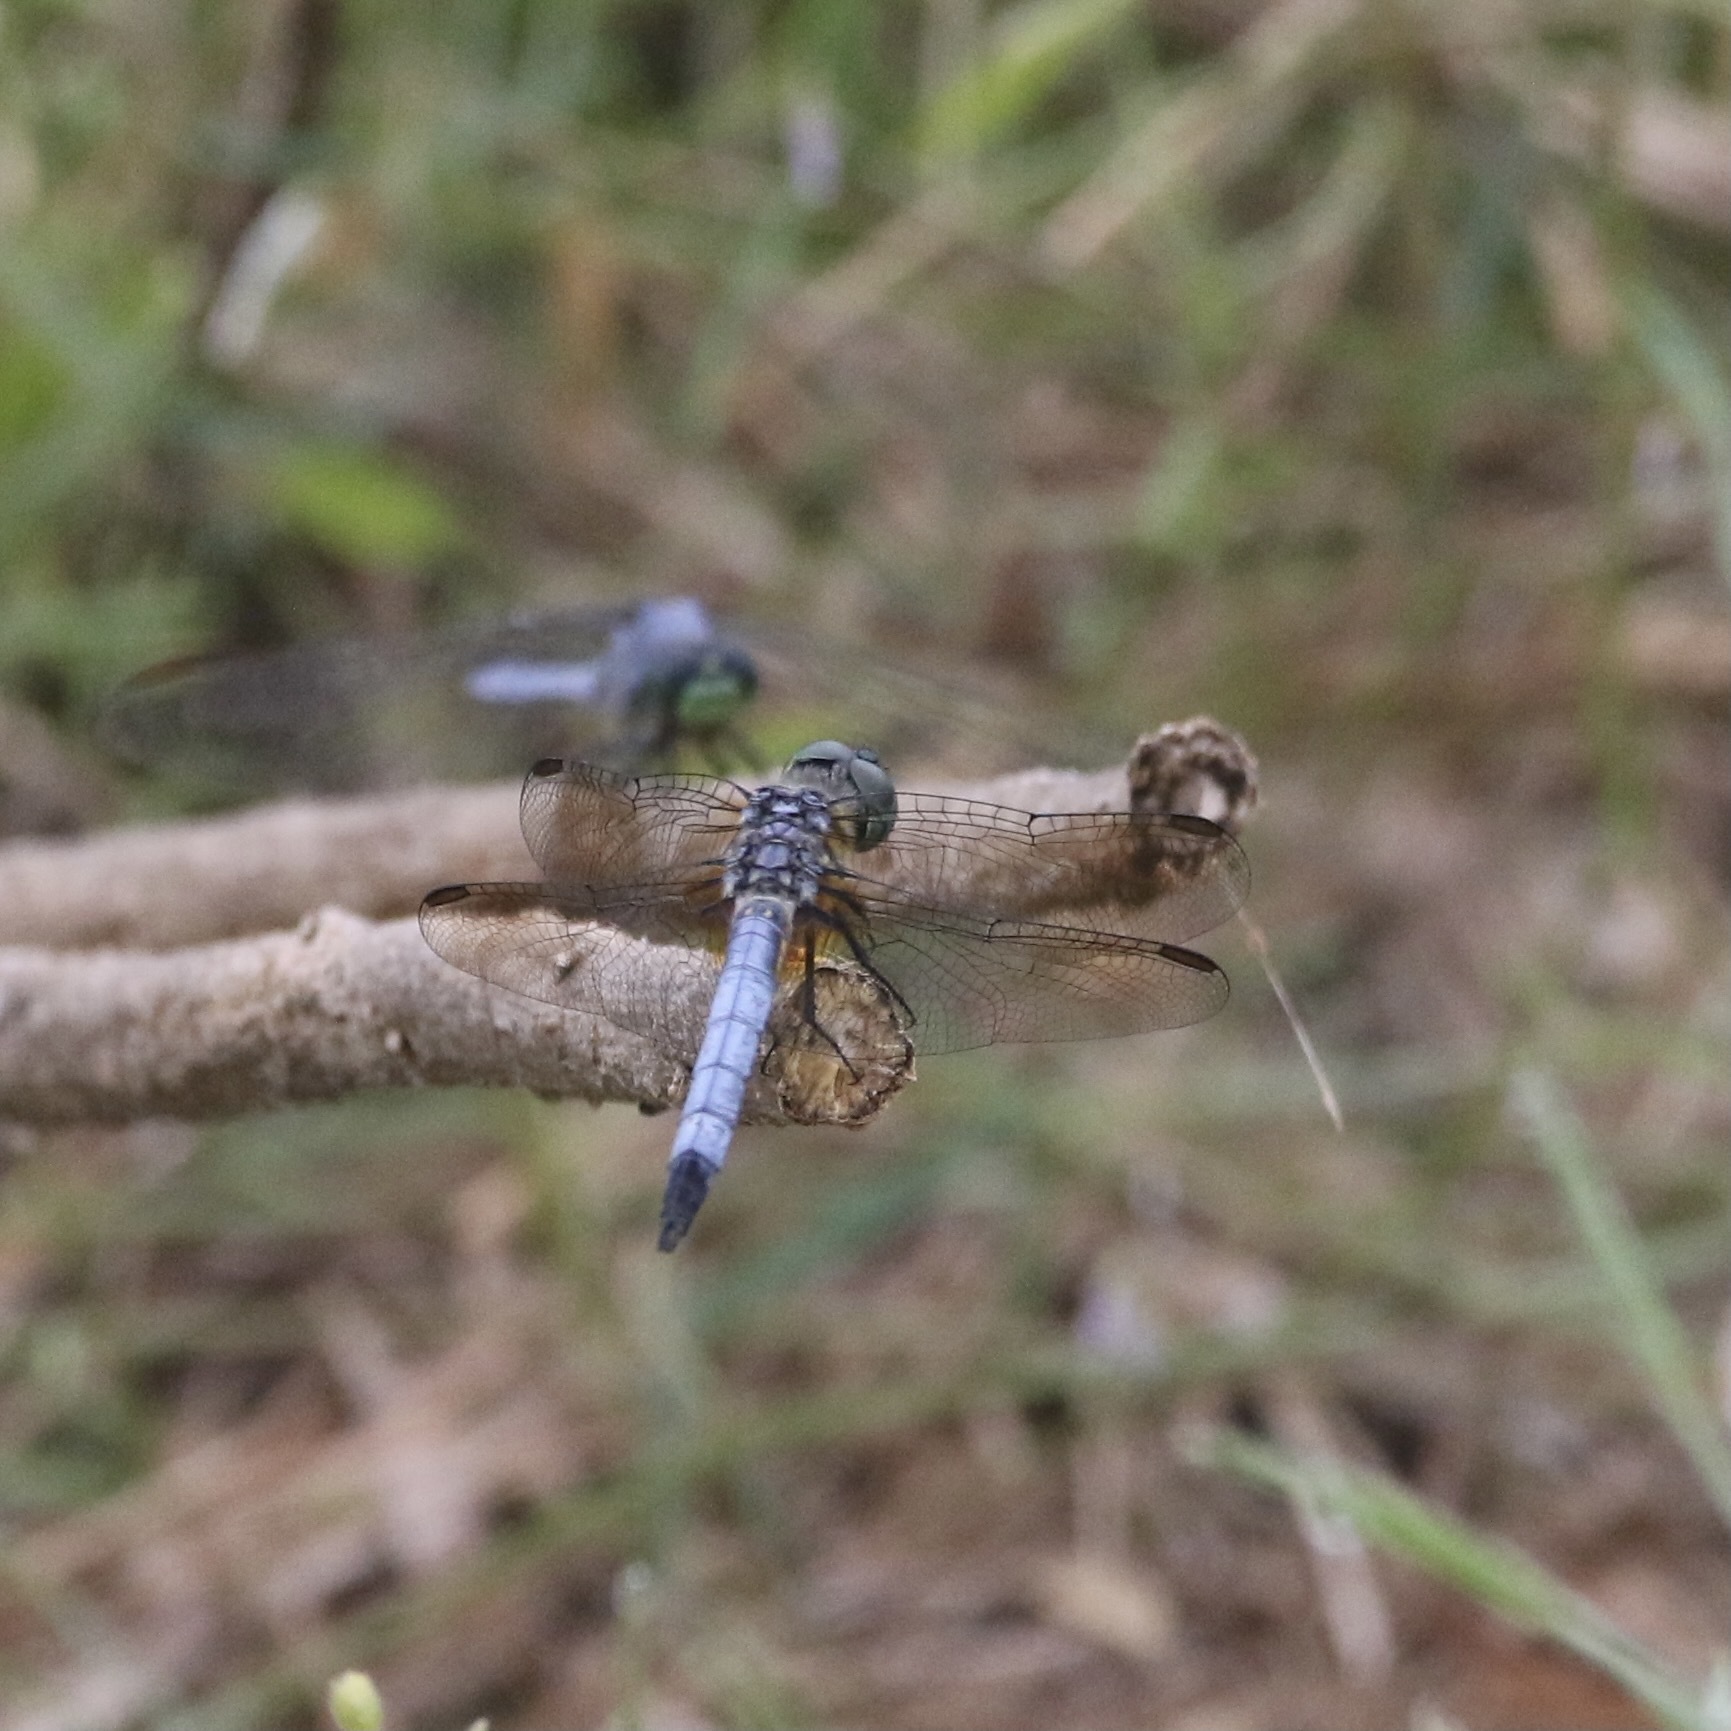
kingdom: Animalia
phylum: Arthropoda
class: Insecta
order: Odonata
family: Libellulidae
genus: Pachydiplax
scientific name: Pachydiplax longipennis
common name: Blue dasher
